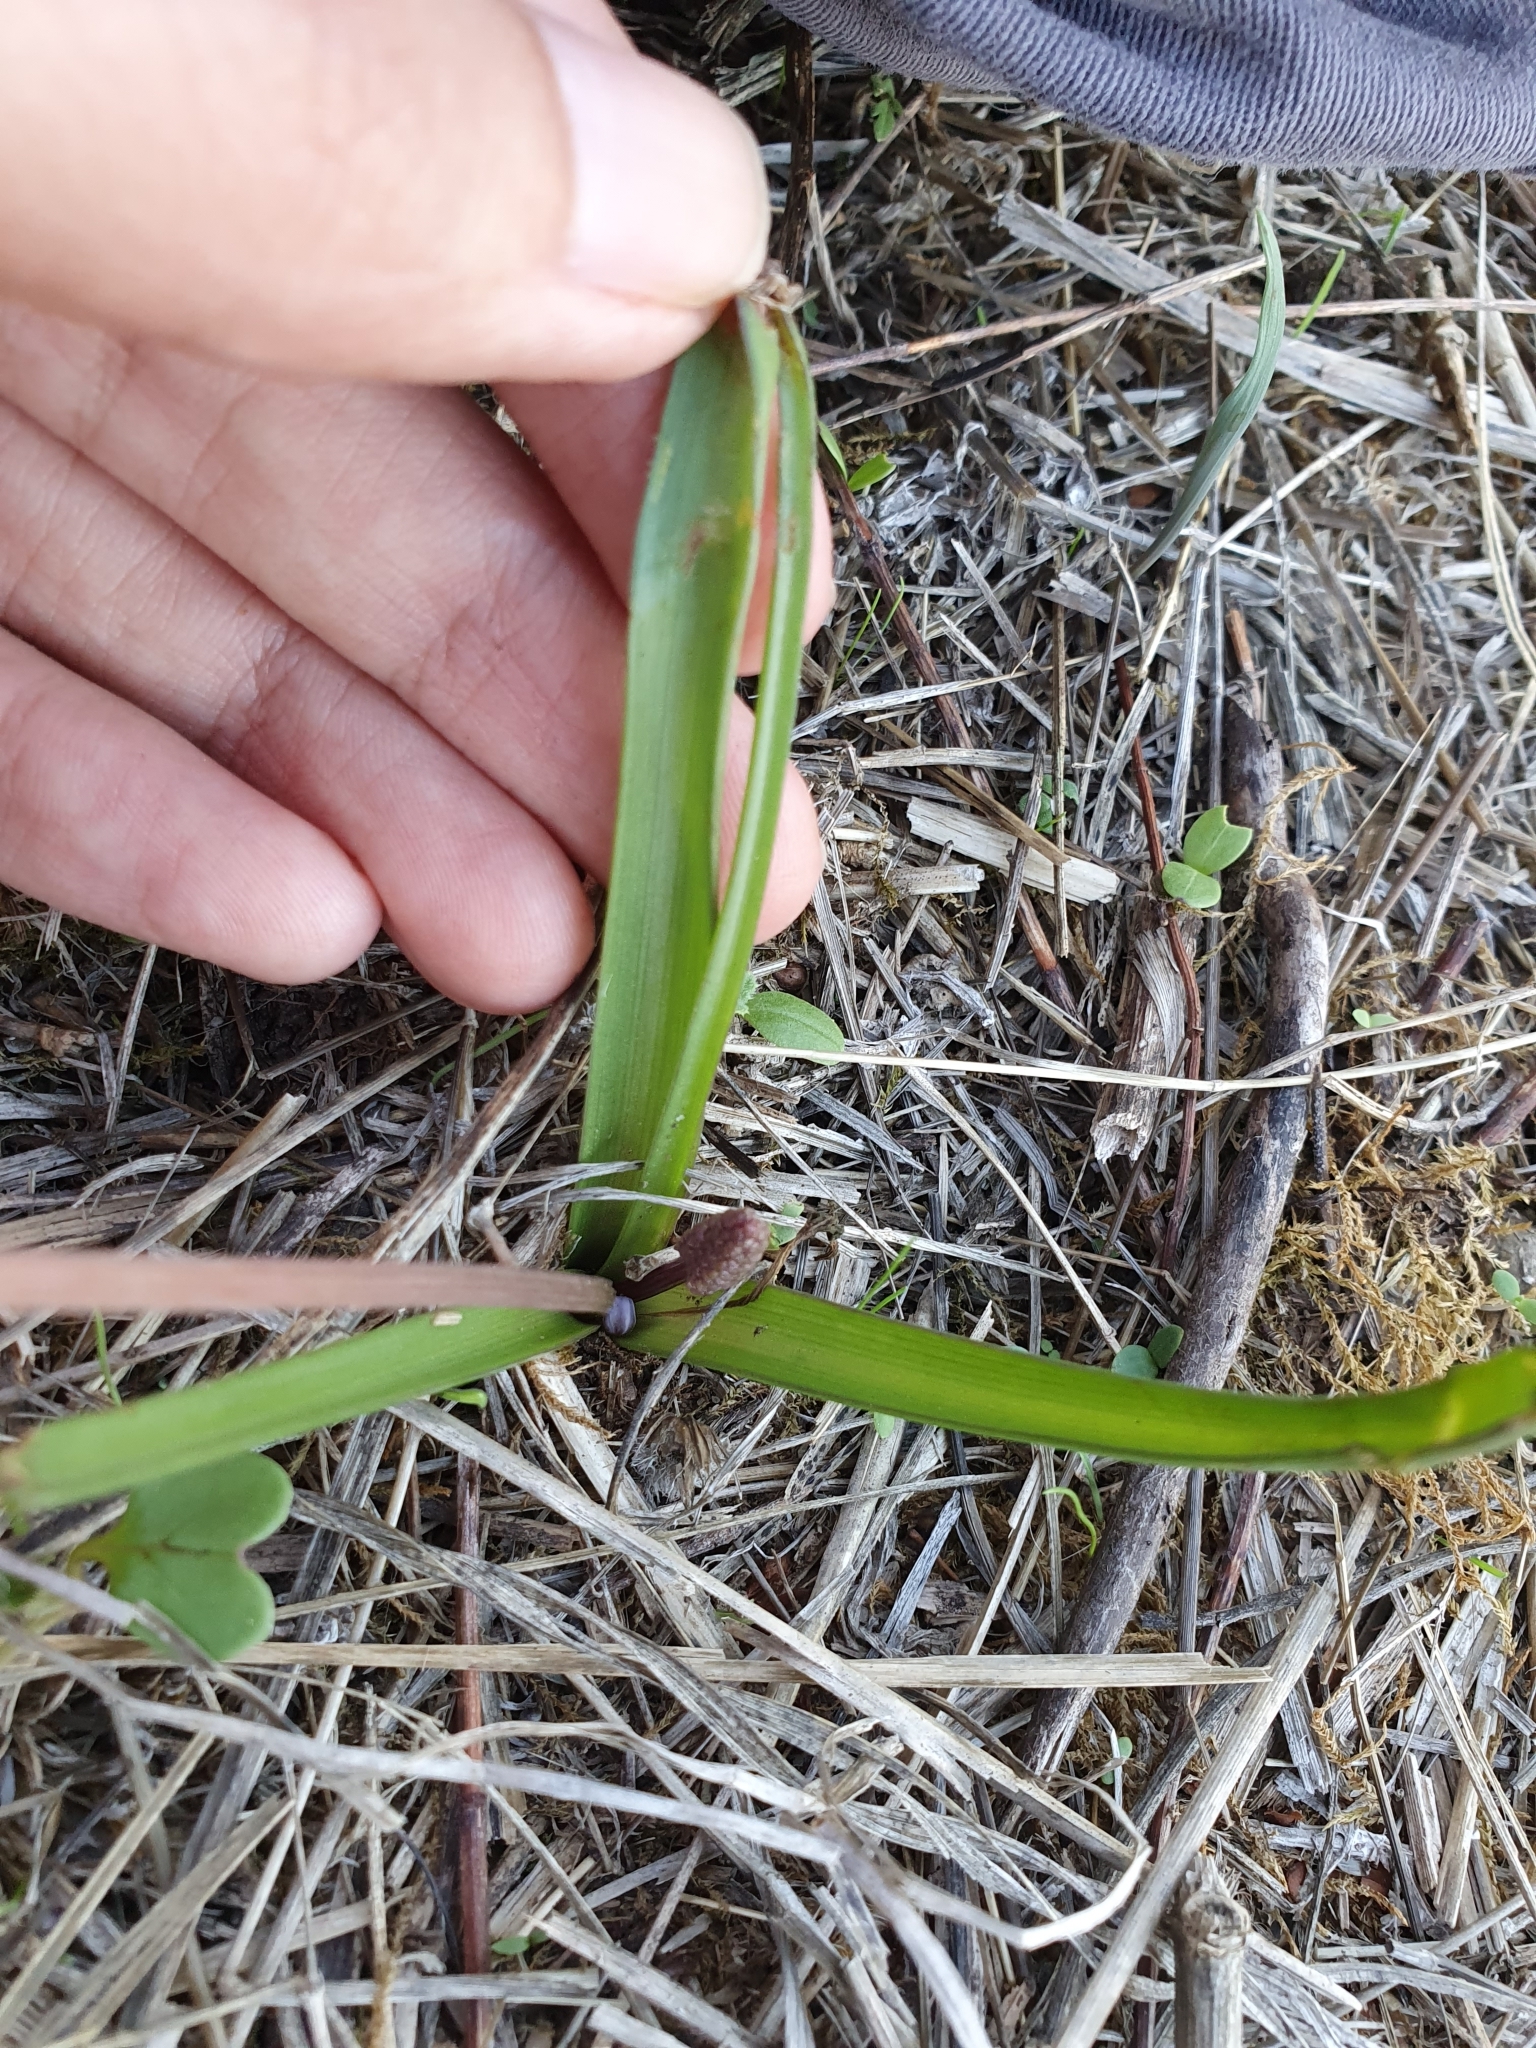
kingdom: Plantae
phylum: Tracheophyta
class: Liliopsida
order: Asparagales
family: Asparagaceae
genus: Barnardia
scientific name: Barnardia numidica
